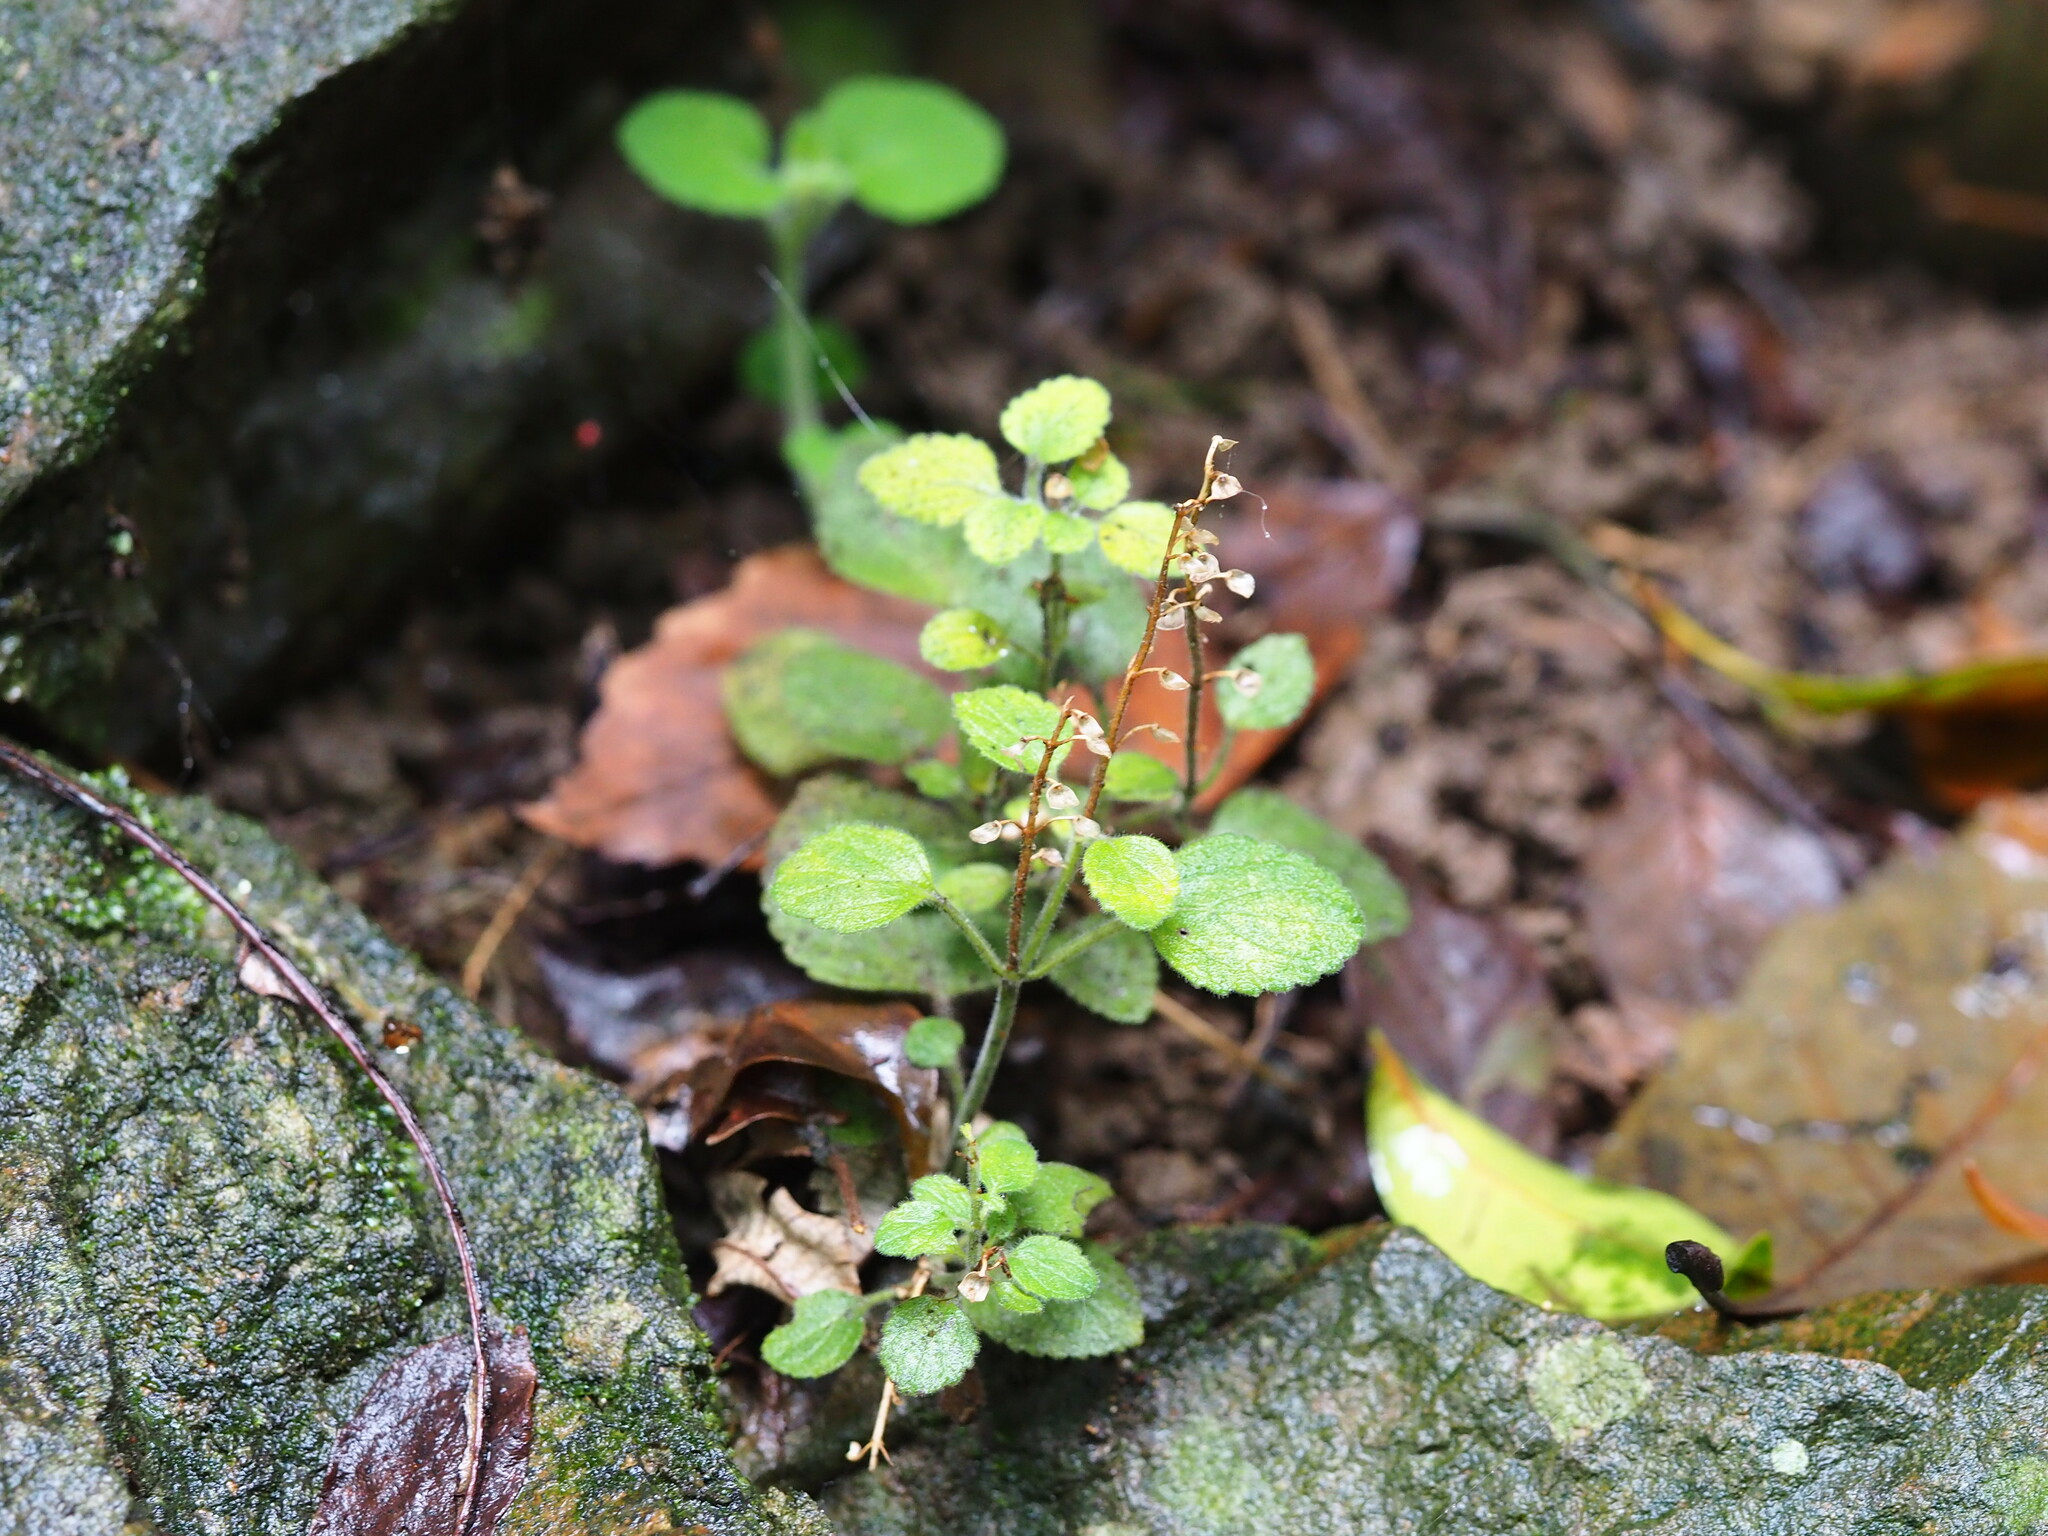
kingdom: Plantae
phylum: Tracheophyta
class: Magnoliopsida
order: Lamiales
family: Lamiaceae
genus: Scutellaria
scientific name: Scutellaria indica
